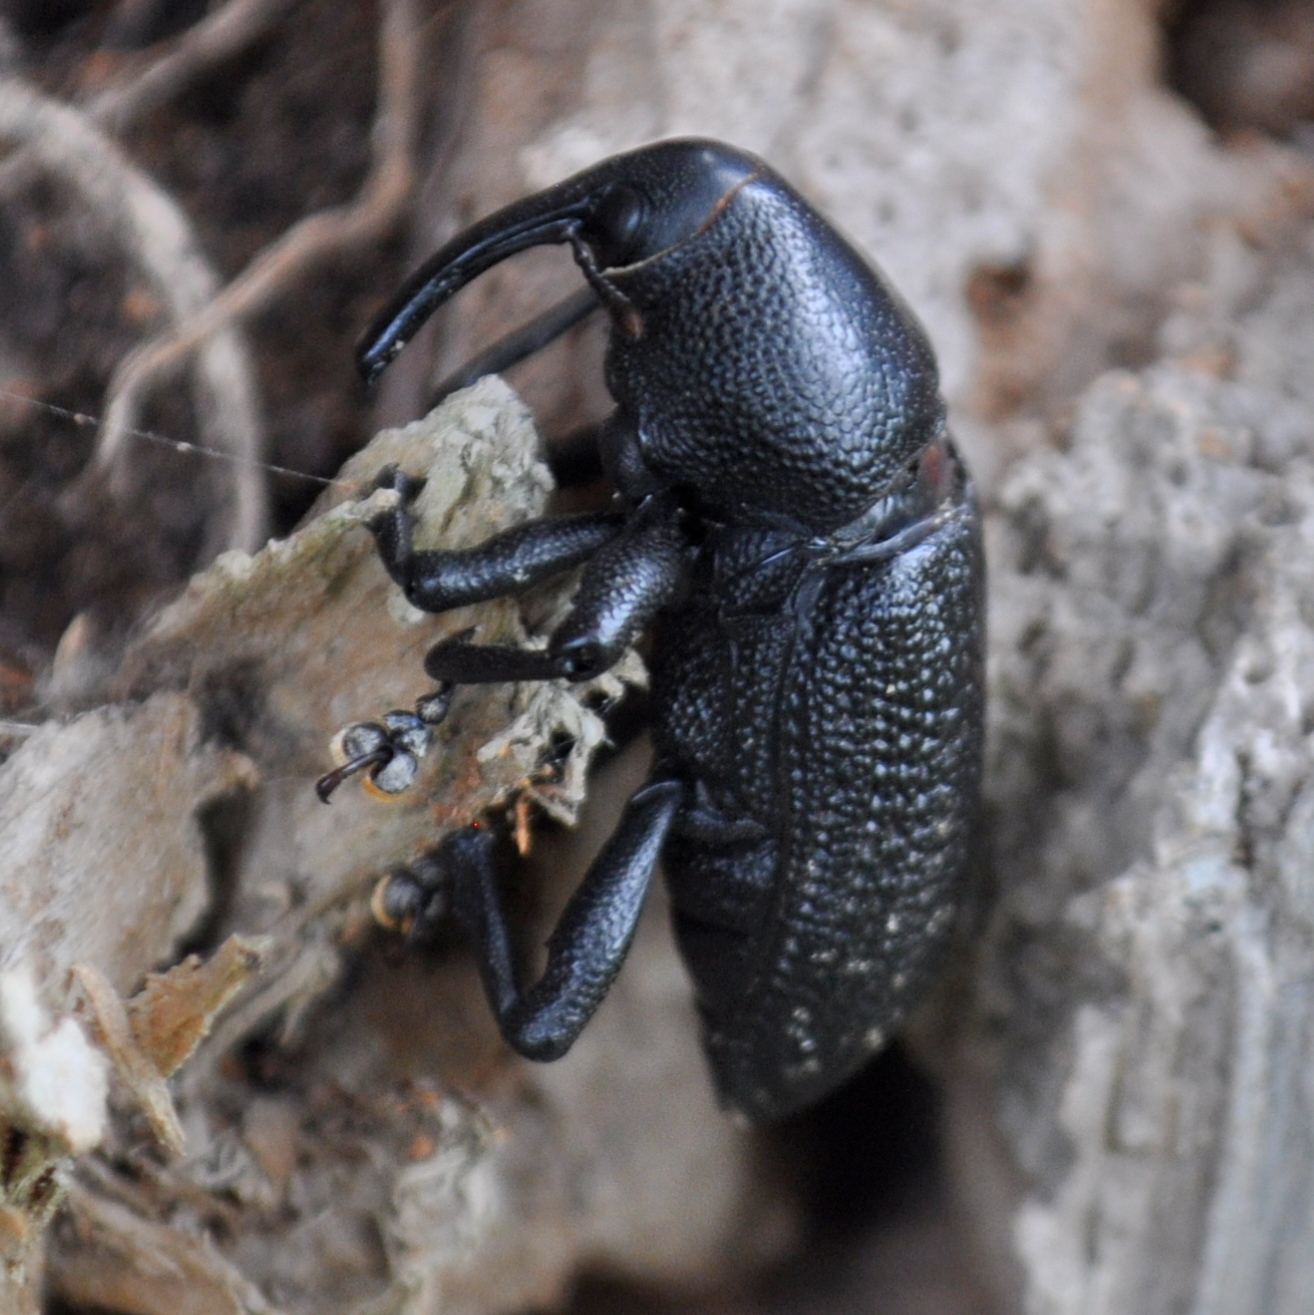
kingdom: Animalia
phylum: Arthropoda
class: Insecta
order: Coleoptera
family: Curculionidae
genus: Homalinotus
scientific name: Homalinotus coriaceus
